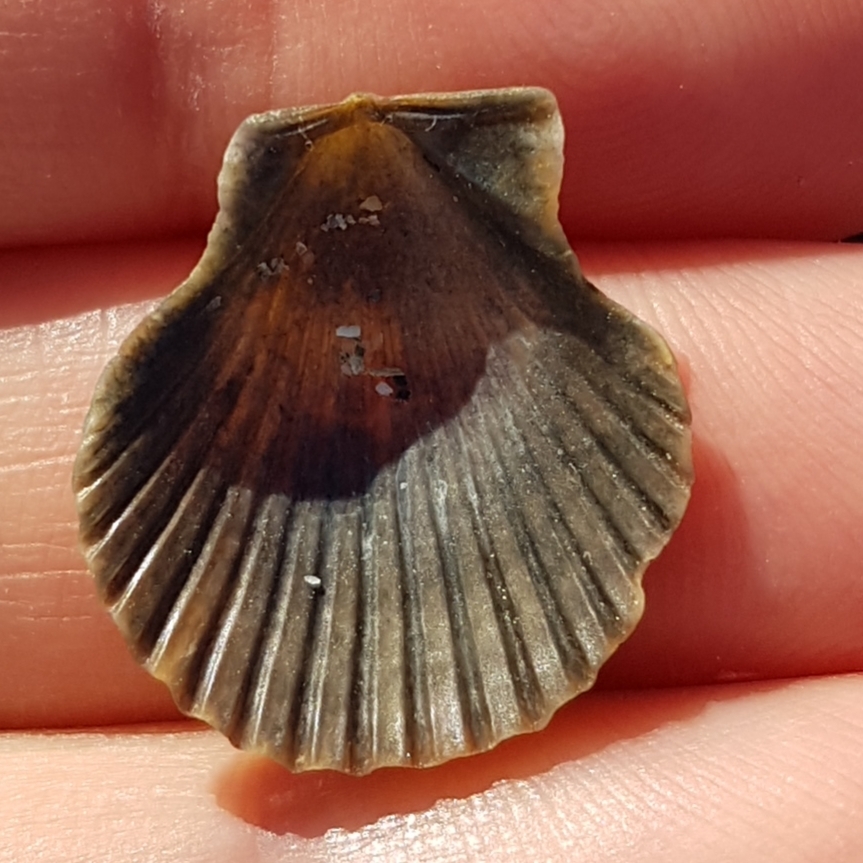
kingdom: Animalia
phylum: Mollusca
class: Bivalvia
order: Pectinida
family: Pectinidae
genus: Aequipecten
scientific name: Aequipecten opercularis
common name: Queen scallop
